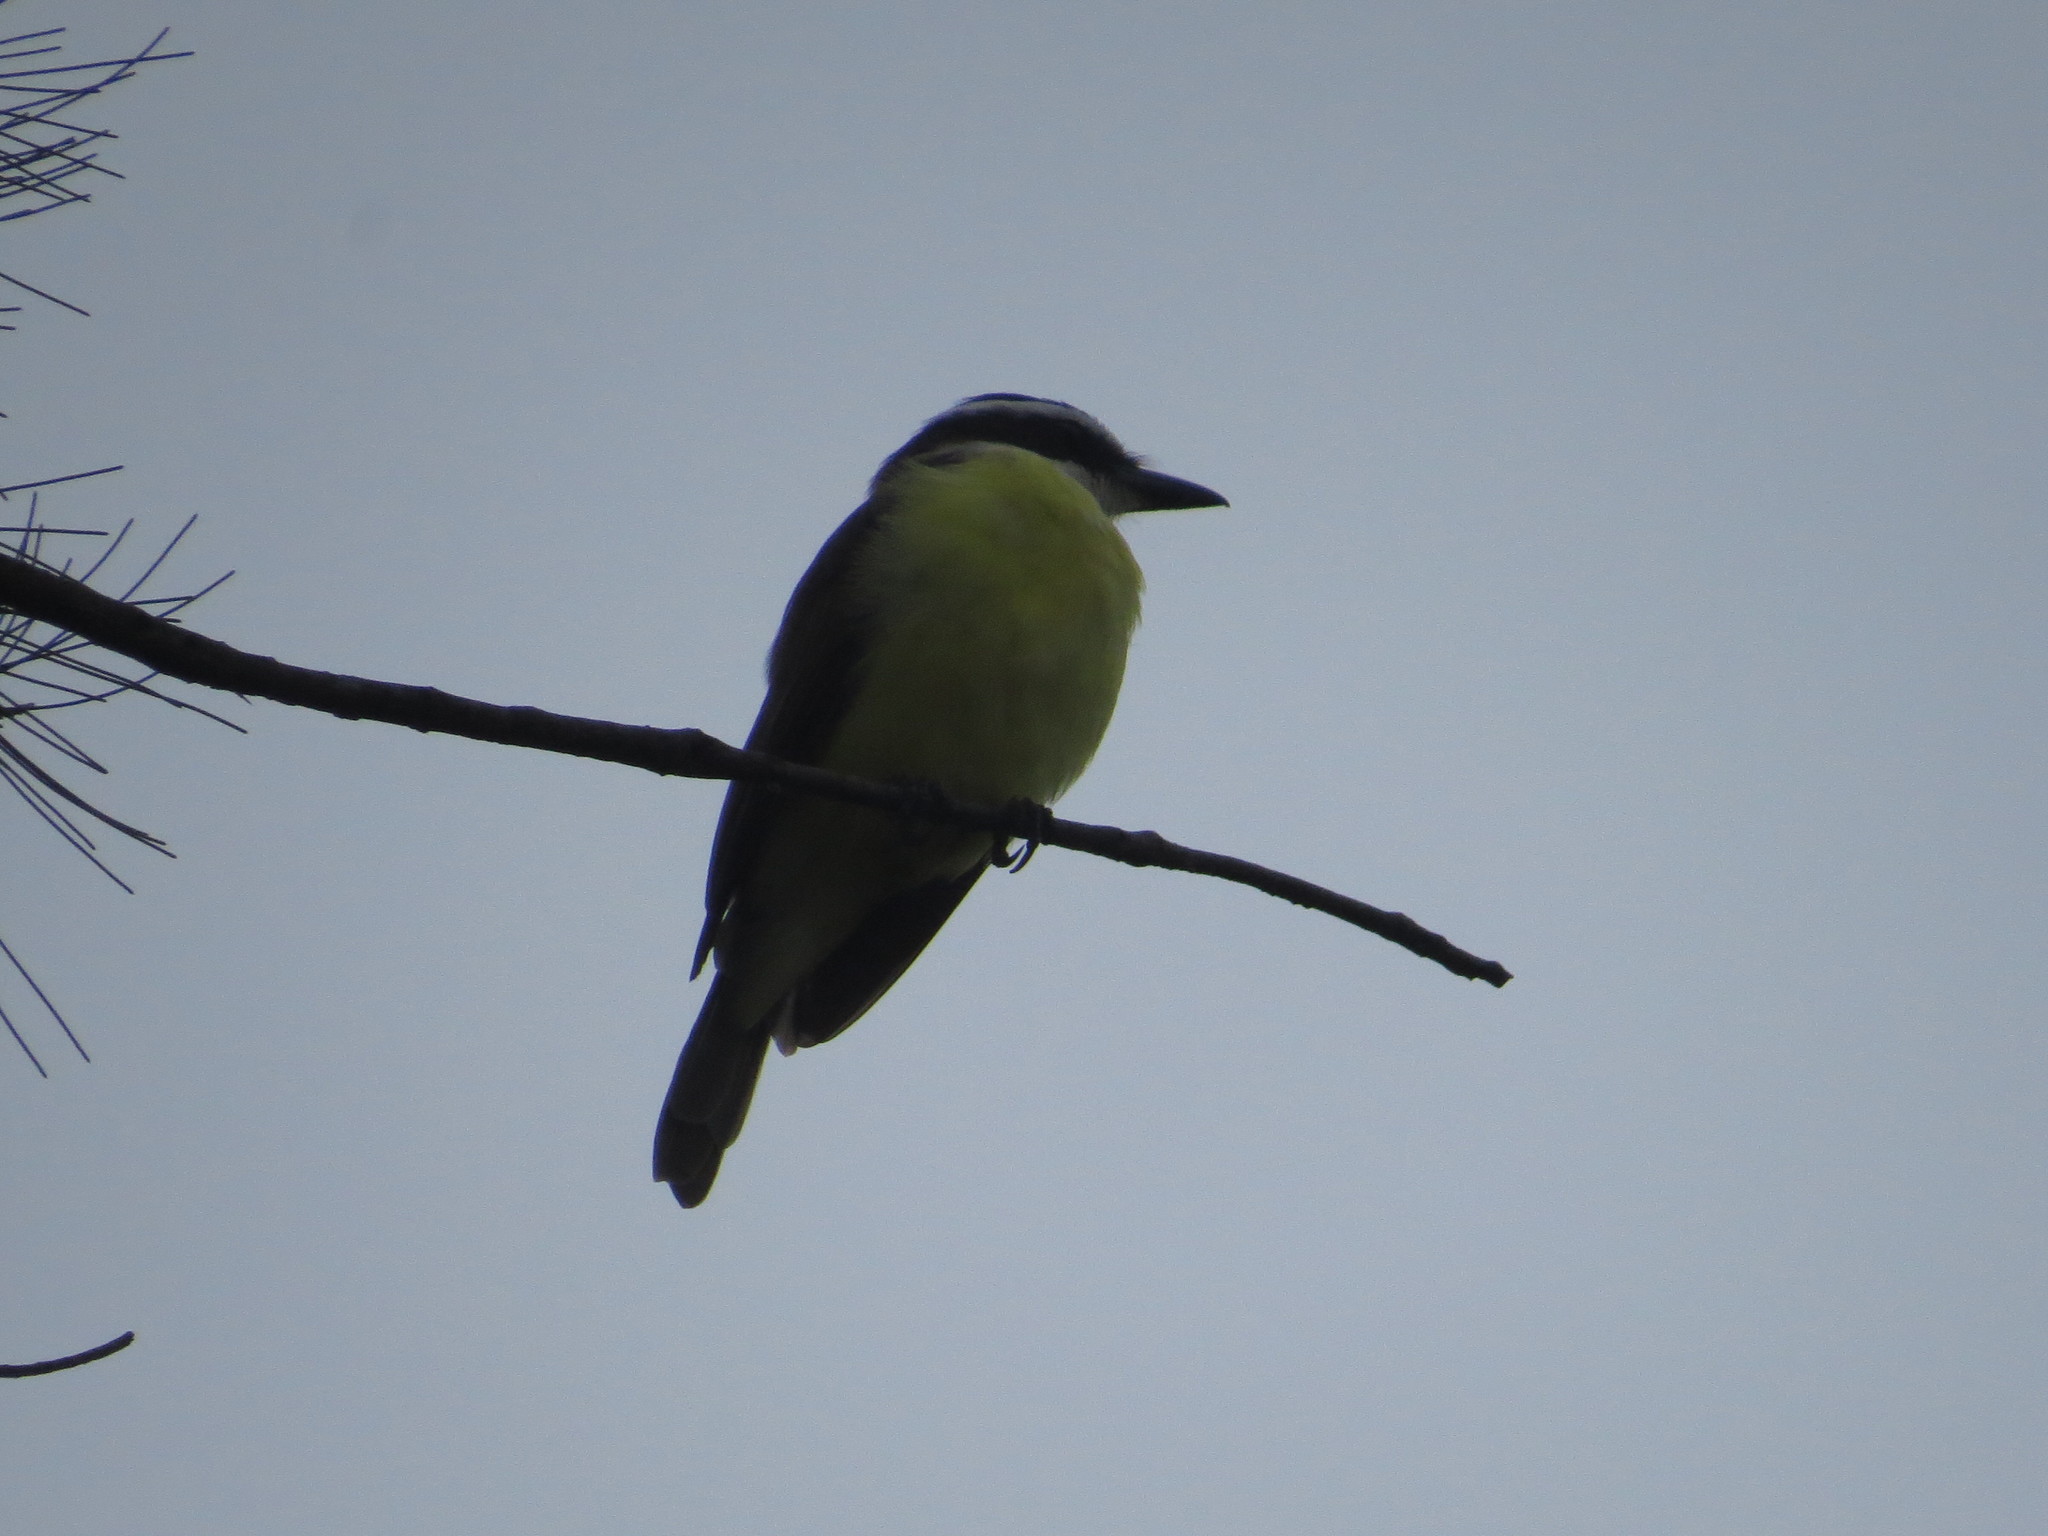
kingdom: Animalia
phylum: Chordata
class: Aves
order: Passeriformes
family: Tyrannidae
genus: Pitangus
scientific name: Pitangus sulphuratus
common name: Great kiskadee
